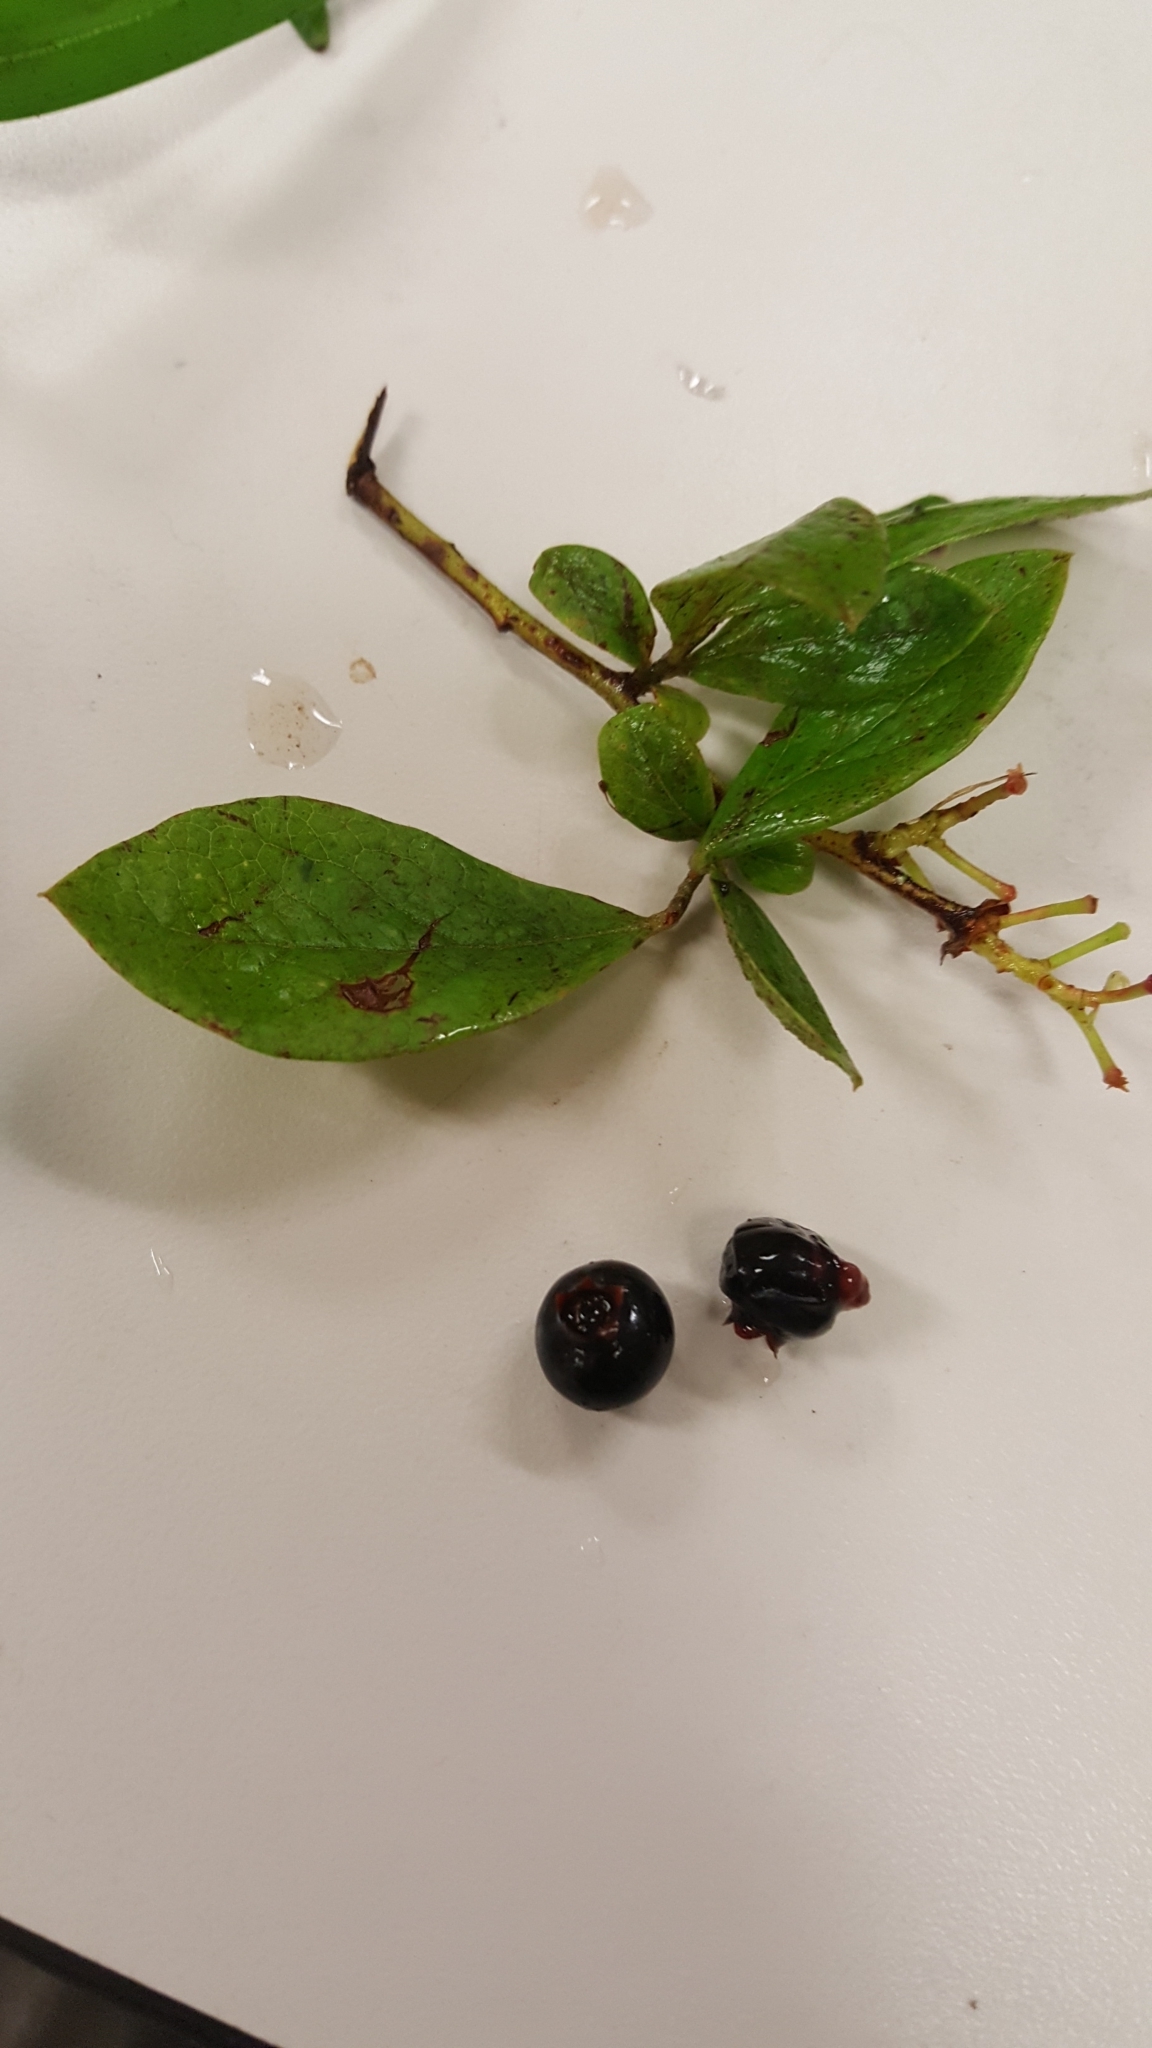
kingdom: Plantae
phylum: Tracheophyta
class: Magnoliopsida
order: Ericales
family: Ericaceae
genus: Vaccinium
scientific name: Vaccinium corymbosum
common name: Blueberry
